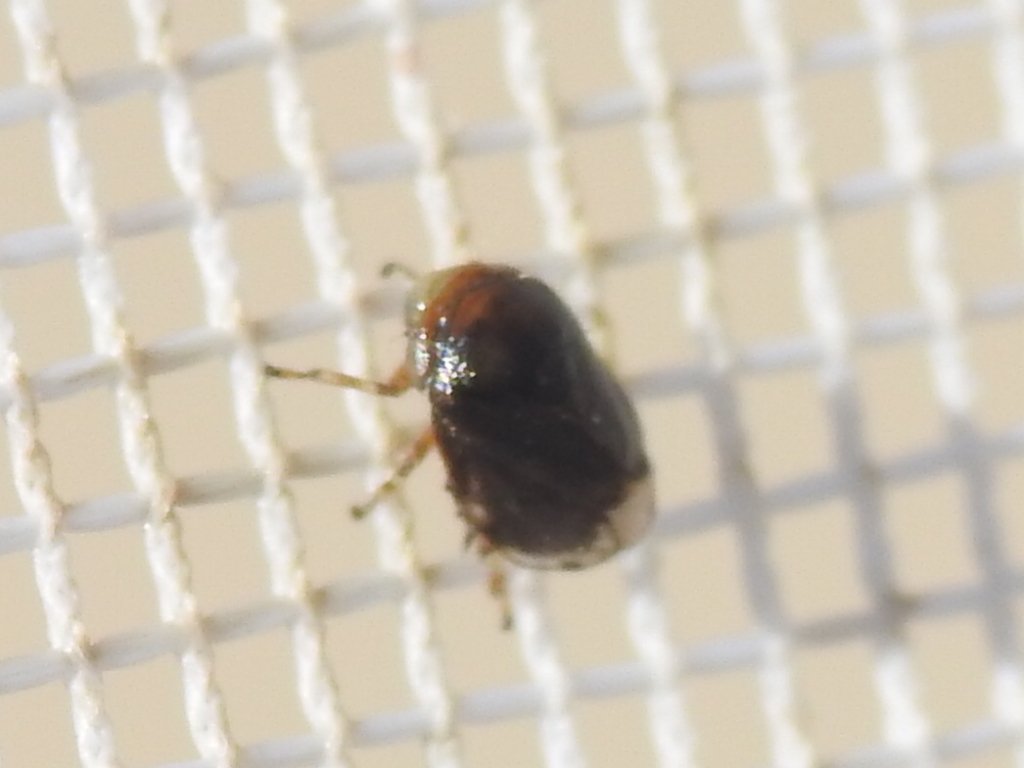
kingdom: Animalia
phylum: Arthropoda
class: Insecta
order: Hemiptera
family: Clastopteridae
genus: Clastoptera
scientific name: Clastoptera xanthocephala
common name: Sunflower spittlebug
